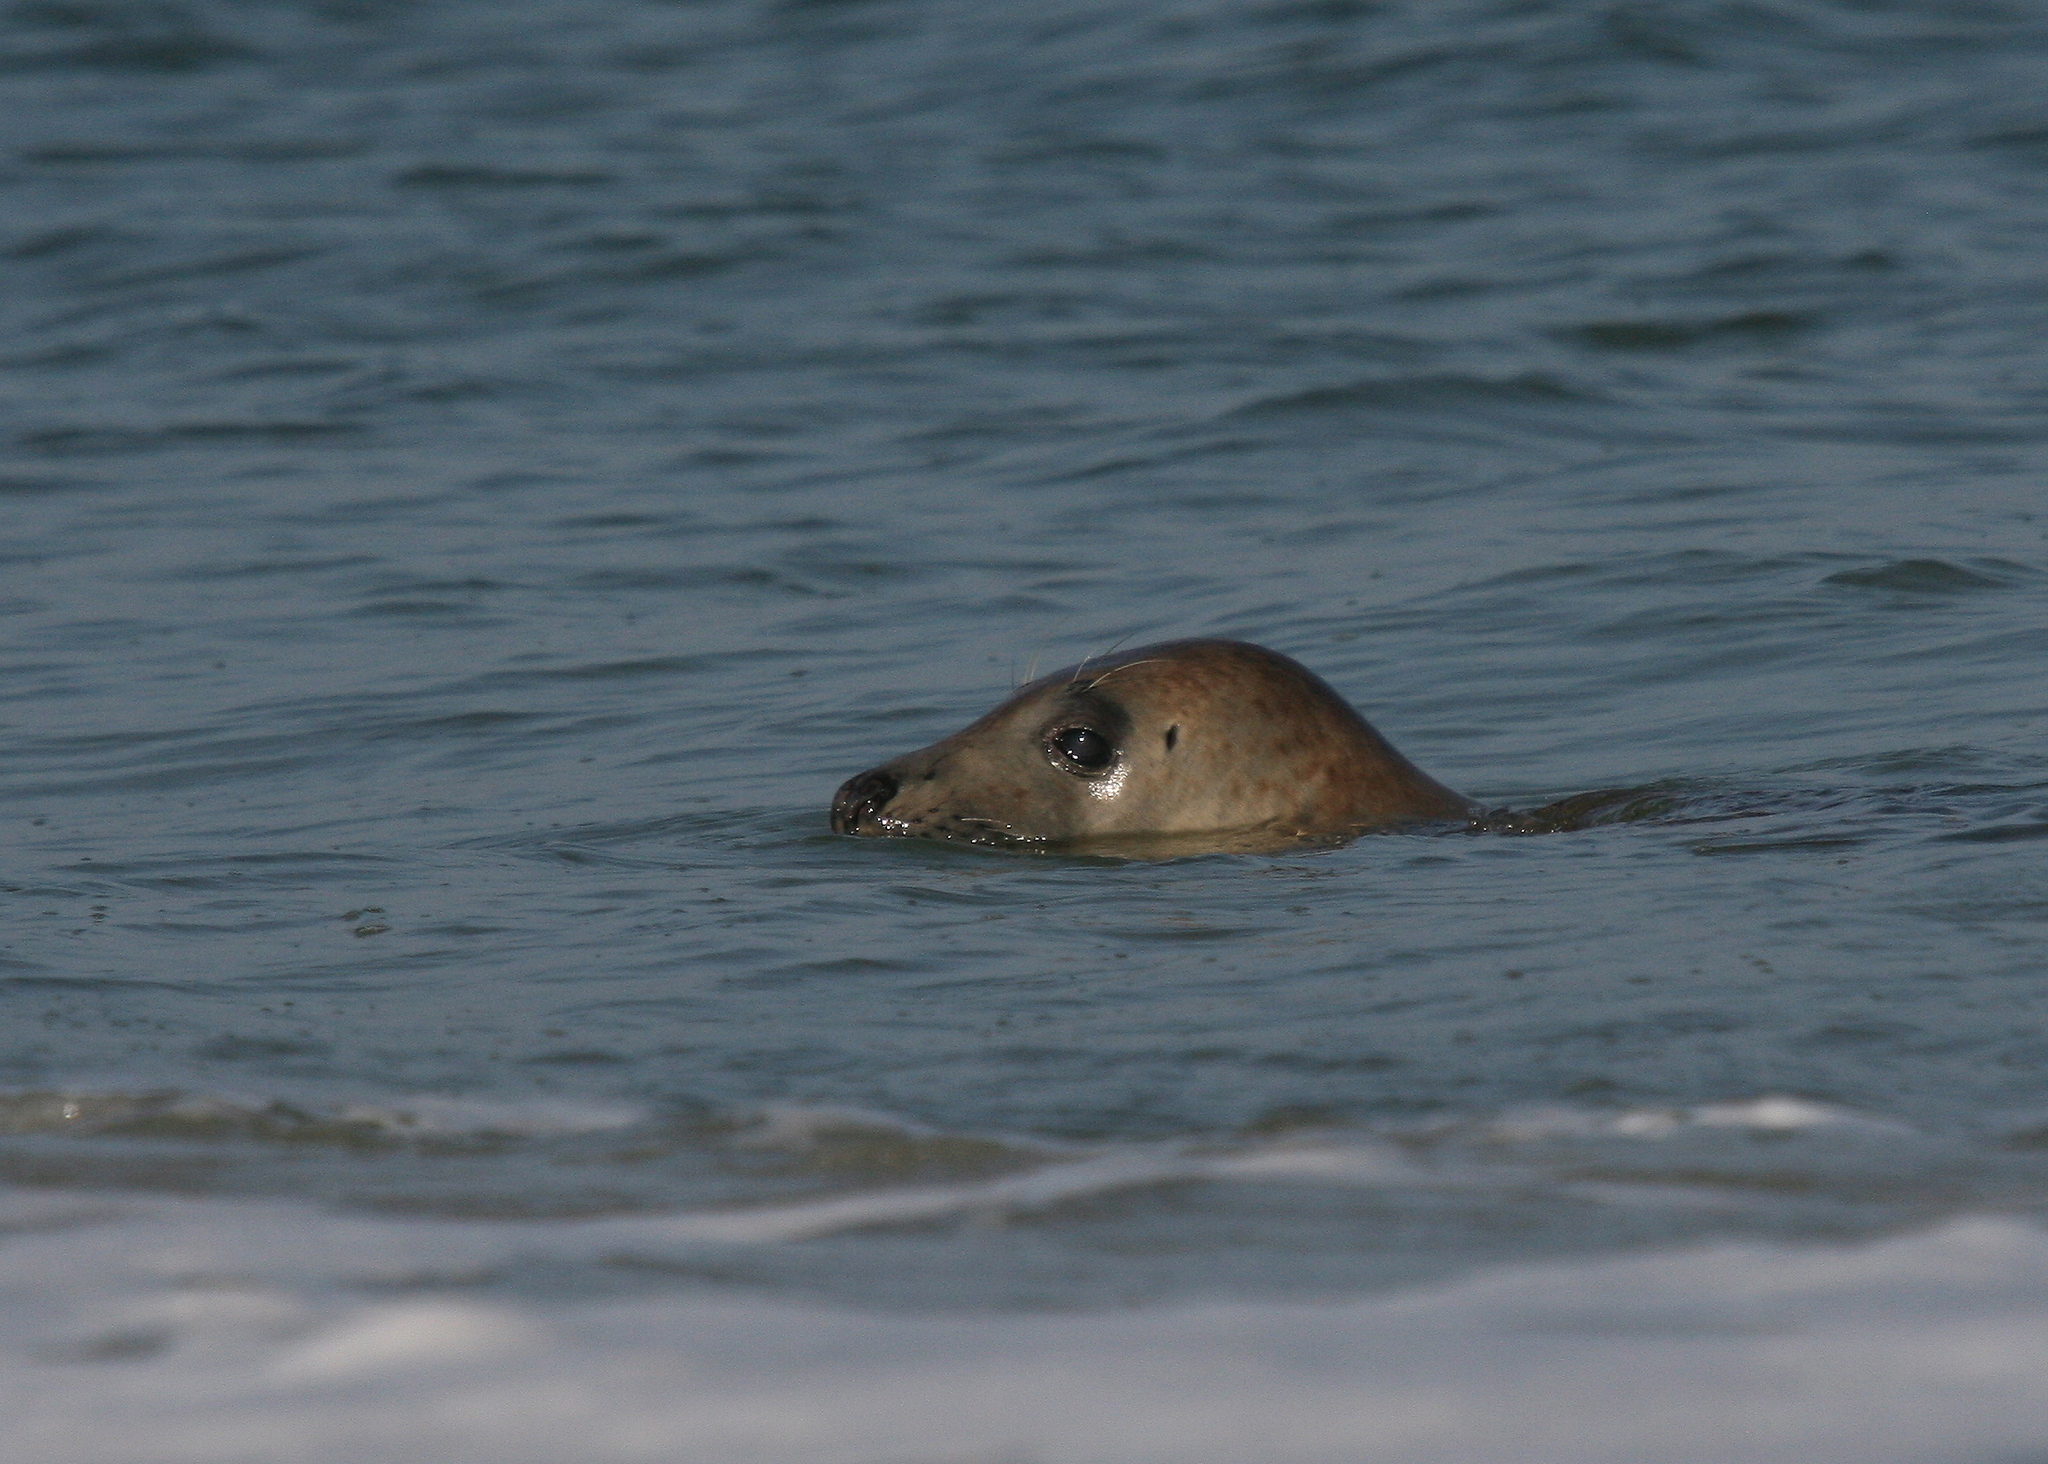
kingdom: Animalia
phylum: Chordata
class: Mammalia
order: Carnivora
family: Phocidae
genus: Halichoerus
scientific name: Halichoerus grypus
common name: Grey seal
